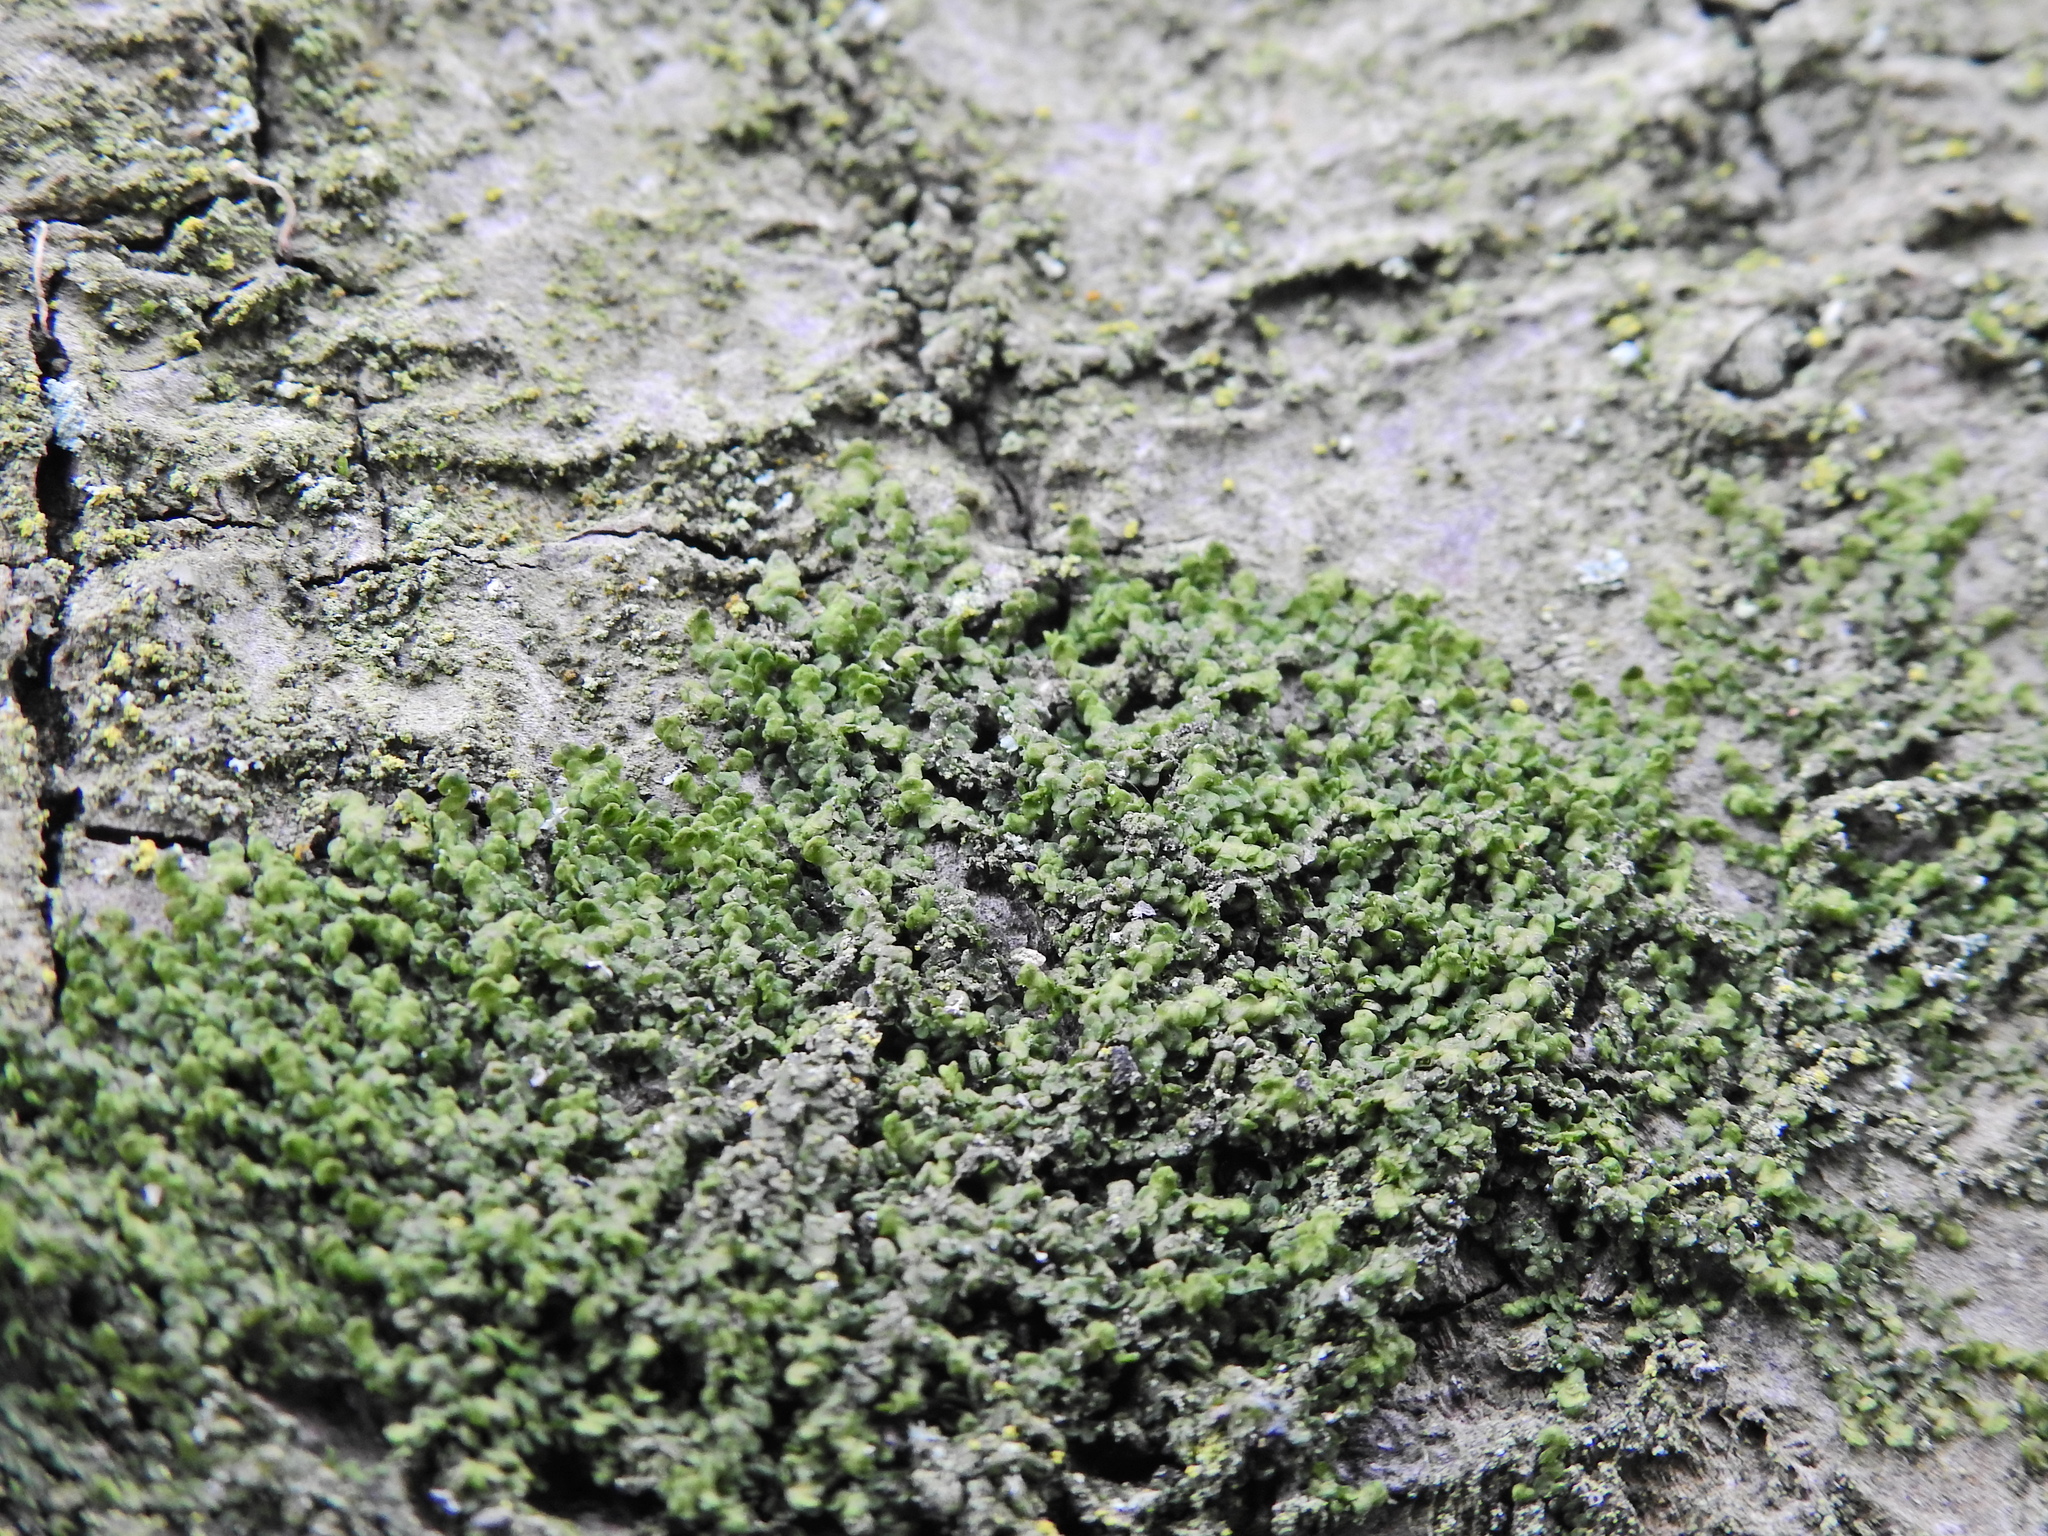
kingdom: Plantae
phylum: Marchantiophyta
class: Jungermanniopsida
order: Porellales
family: Frullaniaceae
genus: Frullania
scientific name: Frullania dilatata
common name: Dilated scalewort
